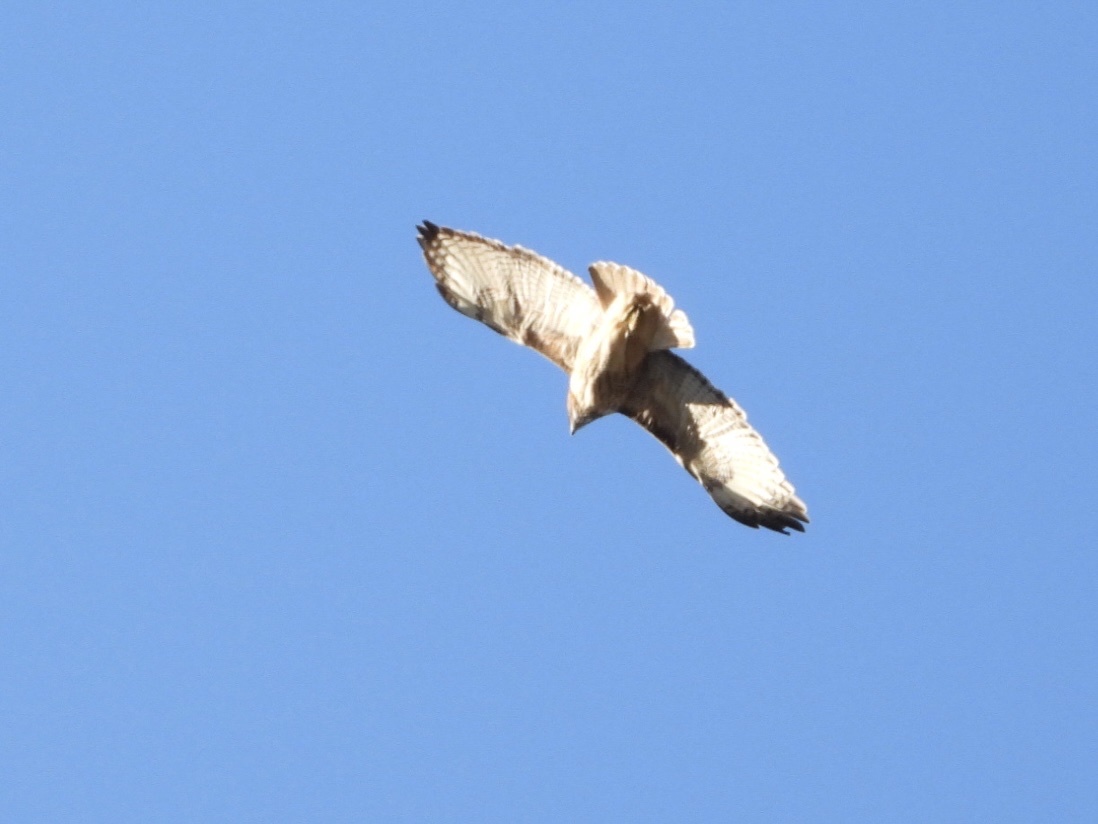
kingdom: Animalia
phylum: Chordata
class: Aves
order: Accipitriformes
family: Accipitridae
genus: Buteo
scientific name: Buteo jamaicensis
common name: Red-tailed hawk
